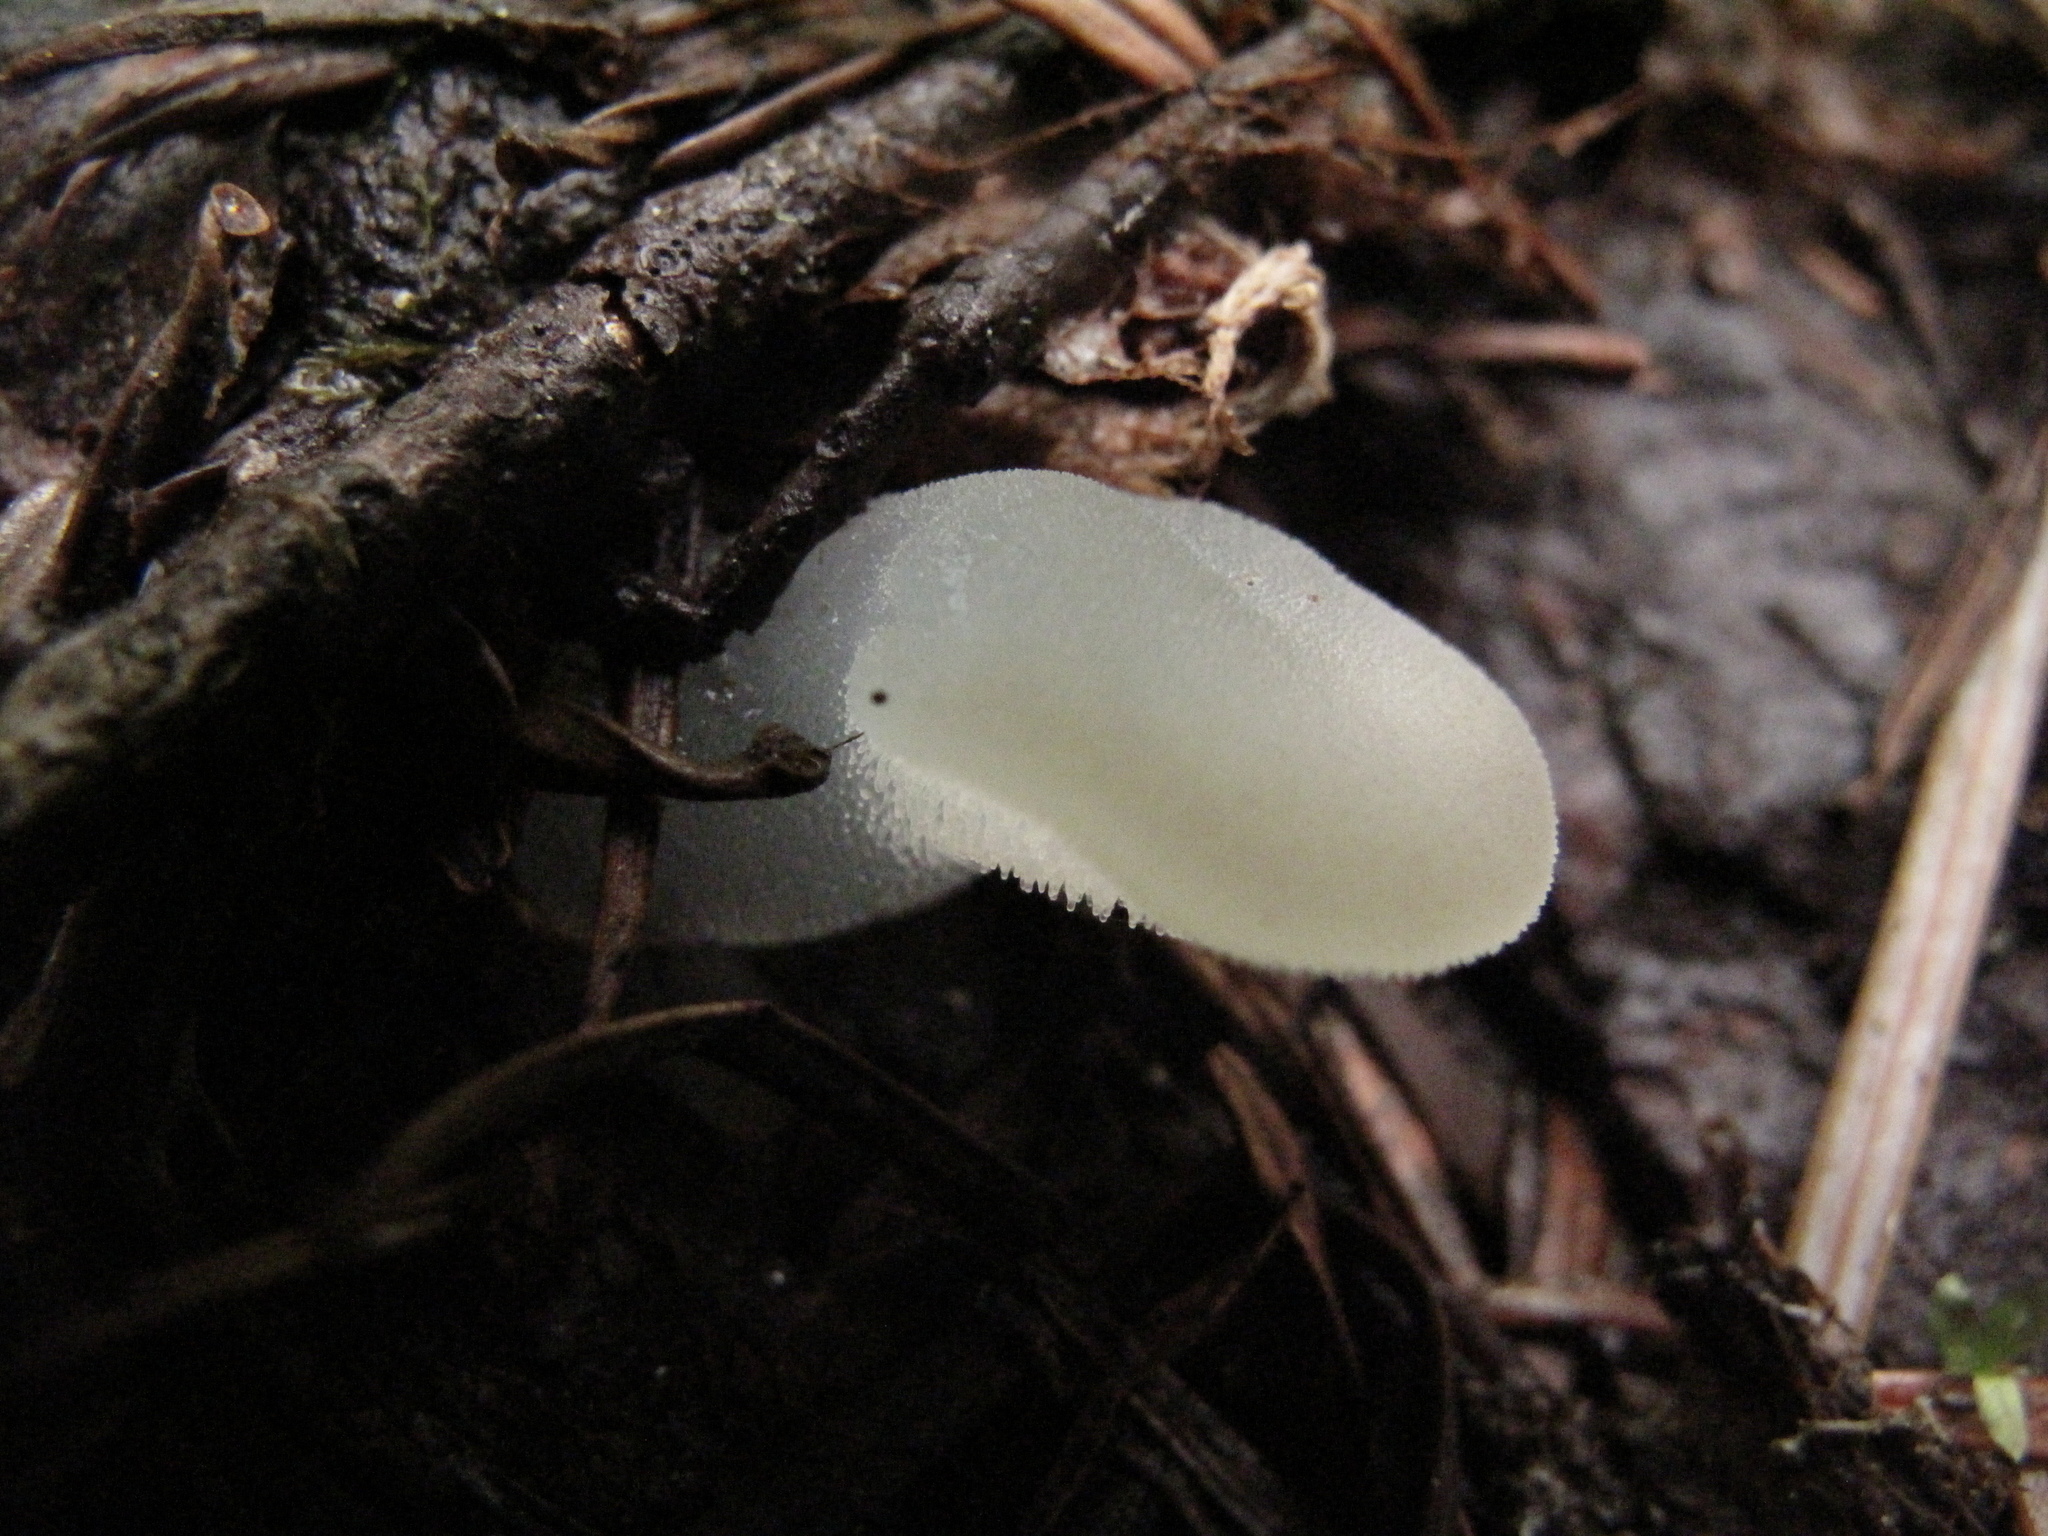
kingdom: Fungi
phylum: Basidiomycota
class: Agaricomycetes
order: Auriculariales
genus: Pseudohydnum
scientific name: Pseudohydnum gelatinosum
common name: Jelly tongue
